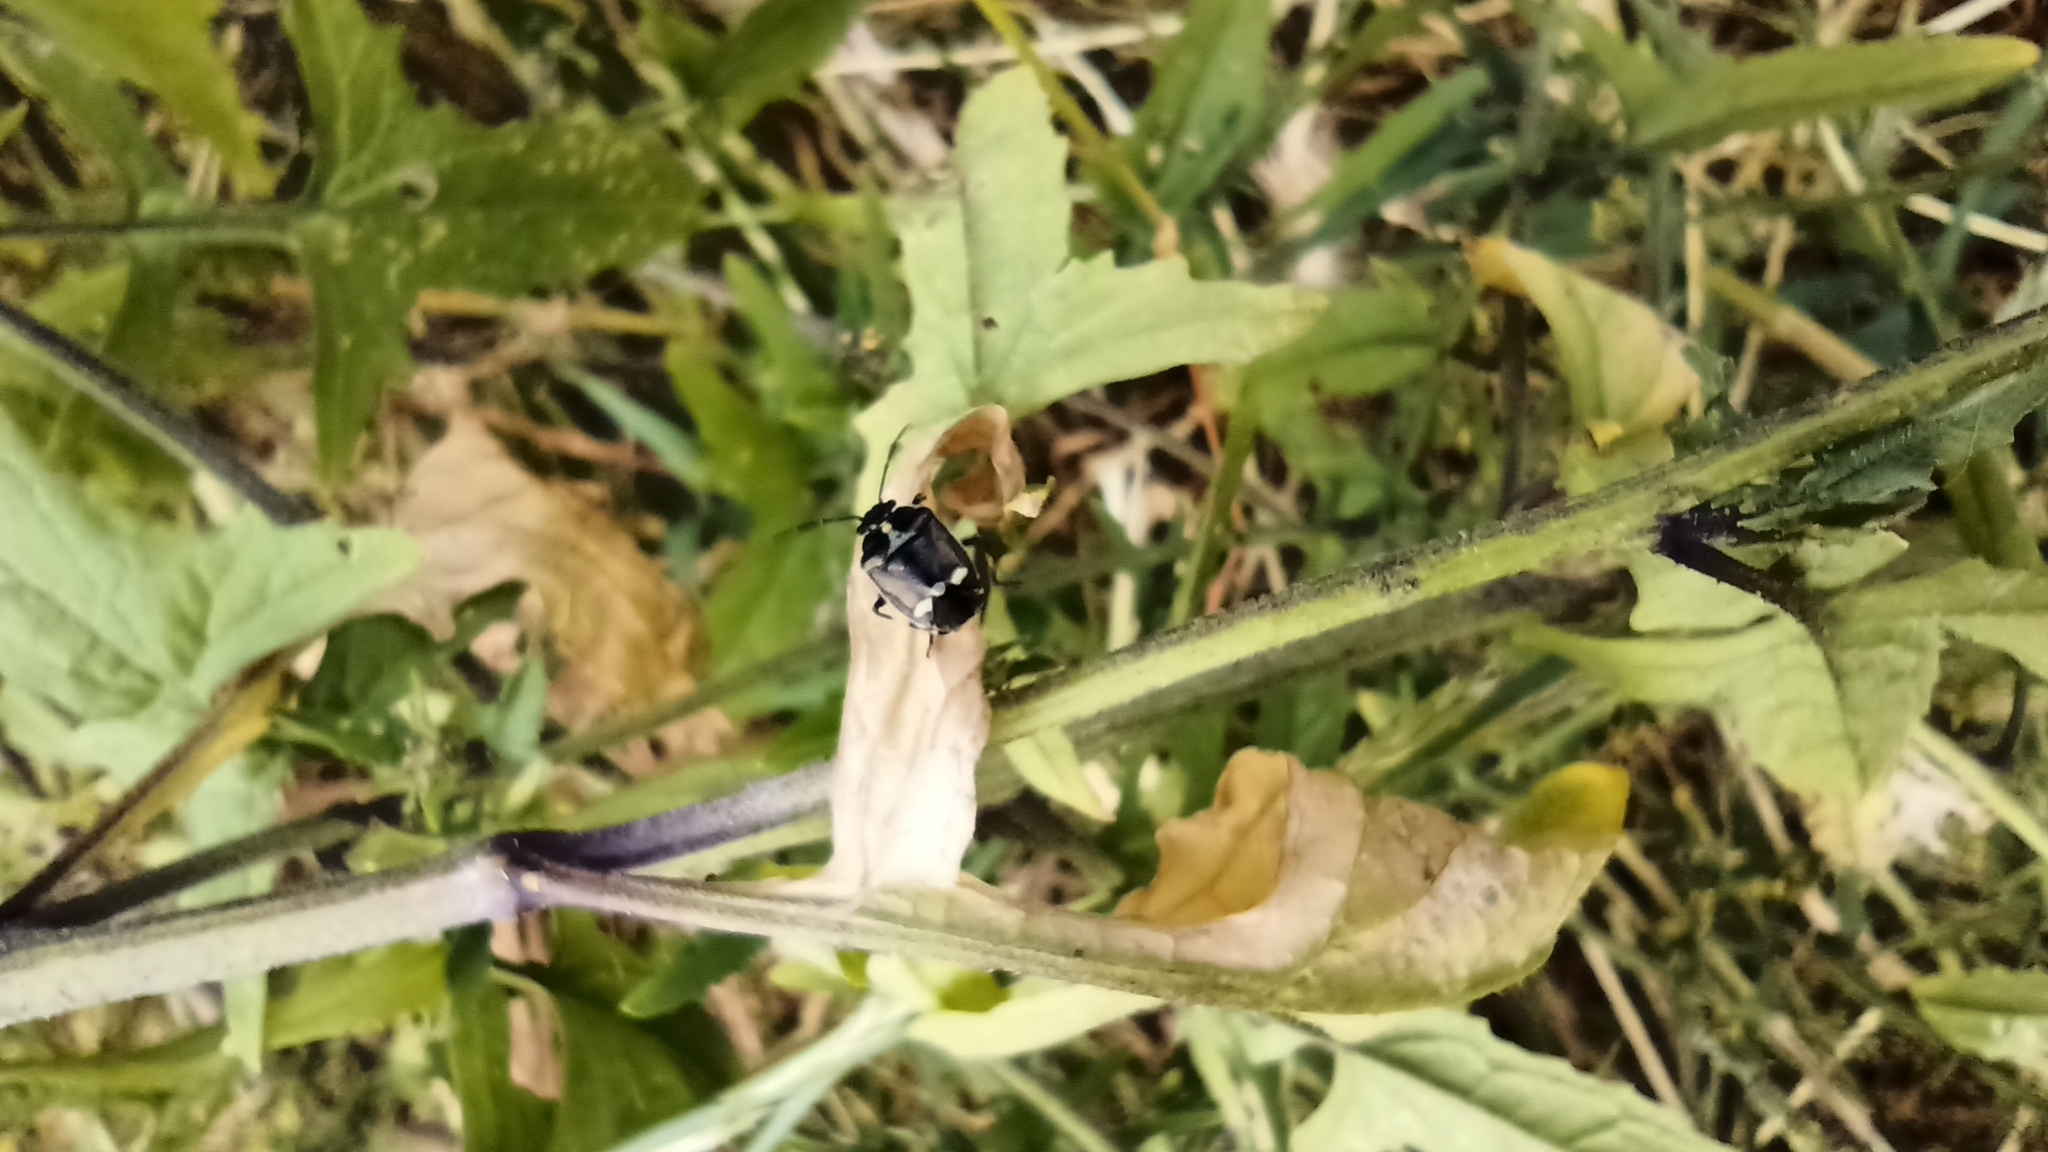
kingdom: Animalia
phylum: Arthropoda
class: Insecta
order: Hemiptera
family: Pentatomidae
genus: Eurydema
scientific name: Eurydema oleracea
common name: Cabbage bug
